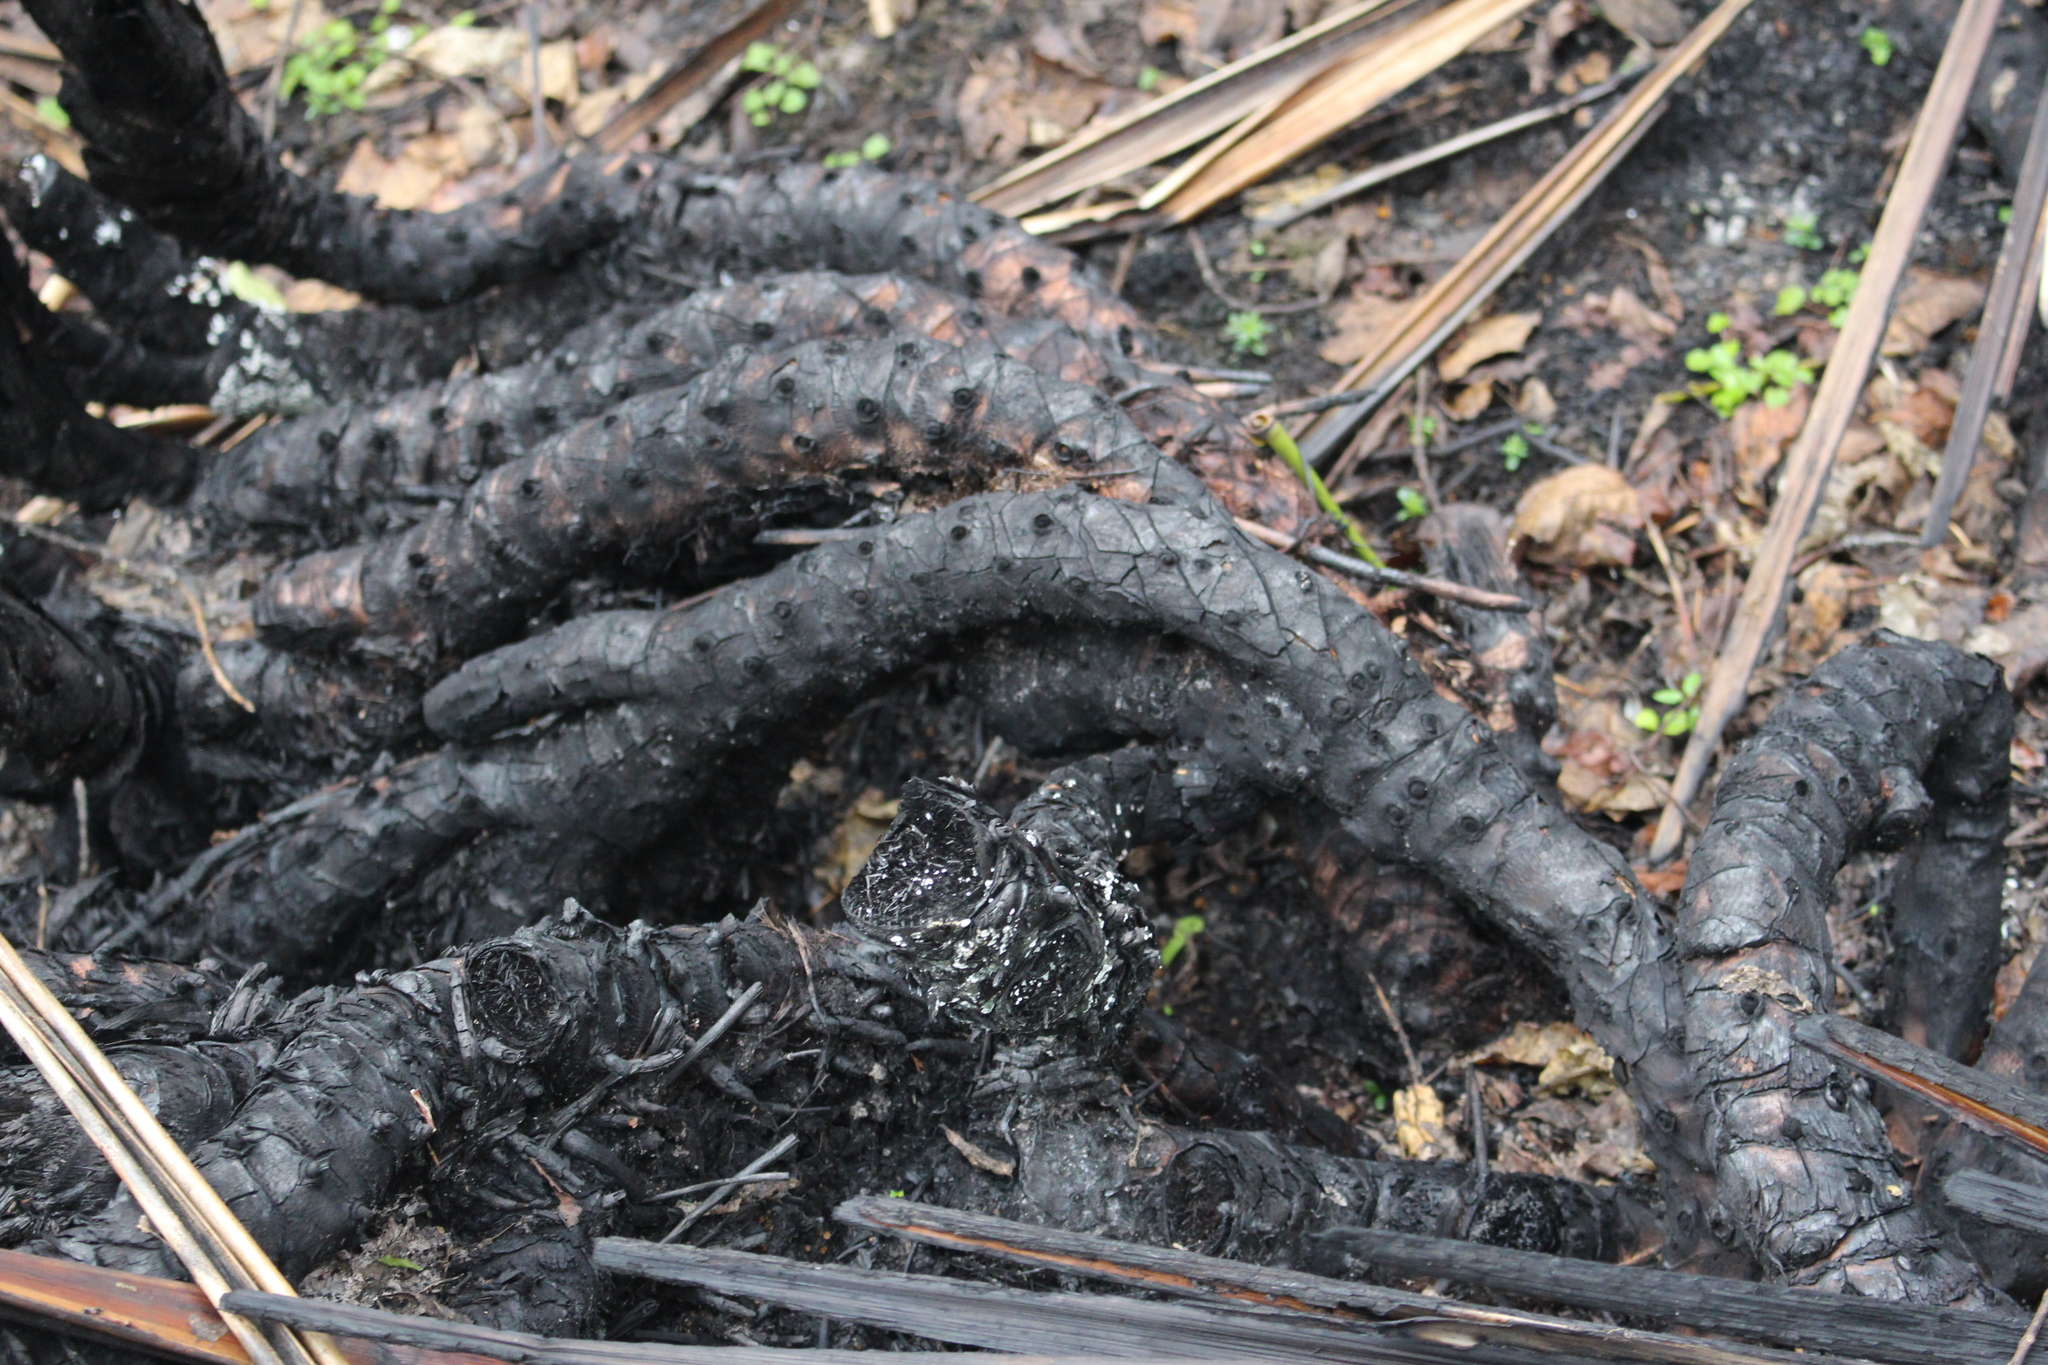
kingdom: Plantae
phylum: Tracheophyta
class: Liliopsida
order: Asparagales
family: Asphodelaceae
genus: Phormium
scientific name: Phormium tenax
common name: New zealand flax
